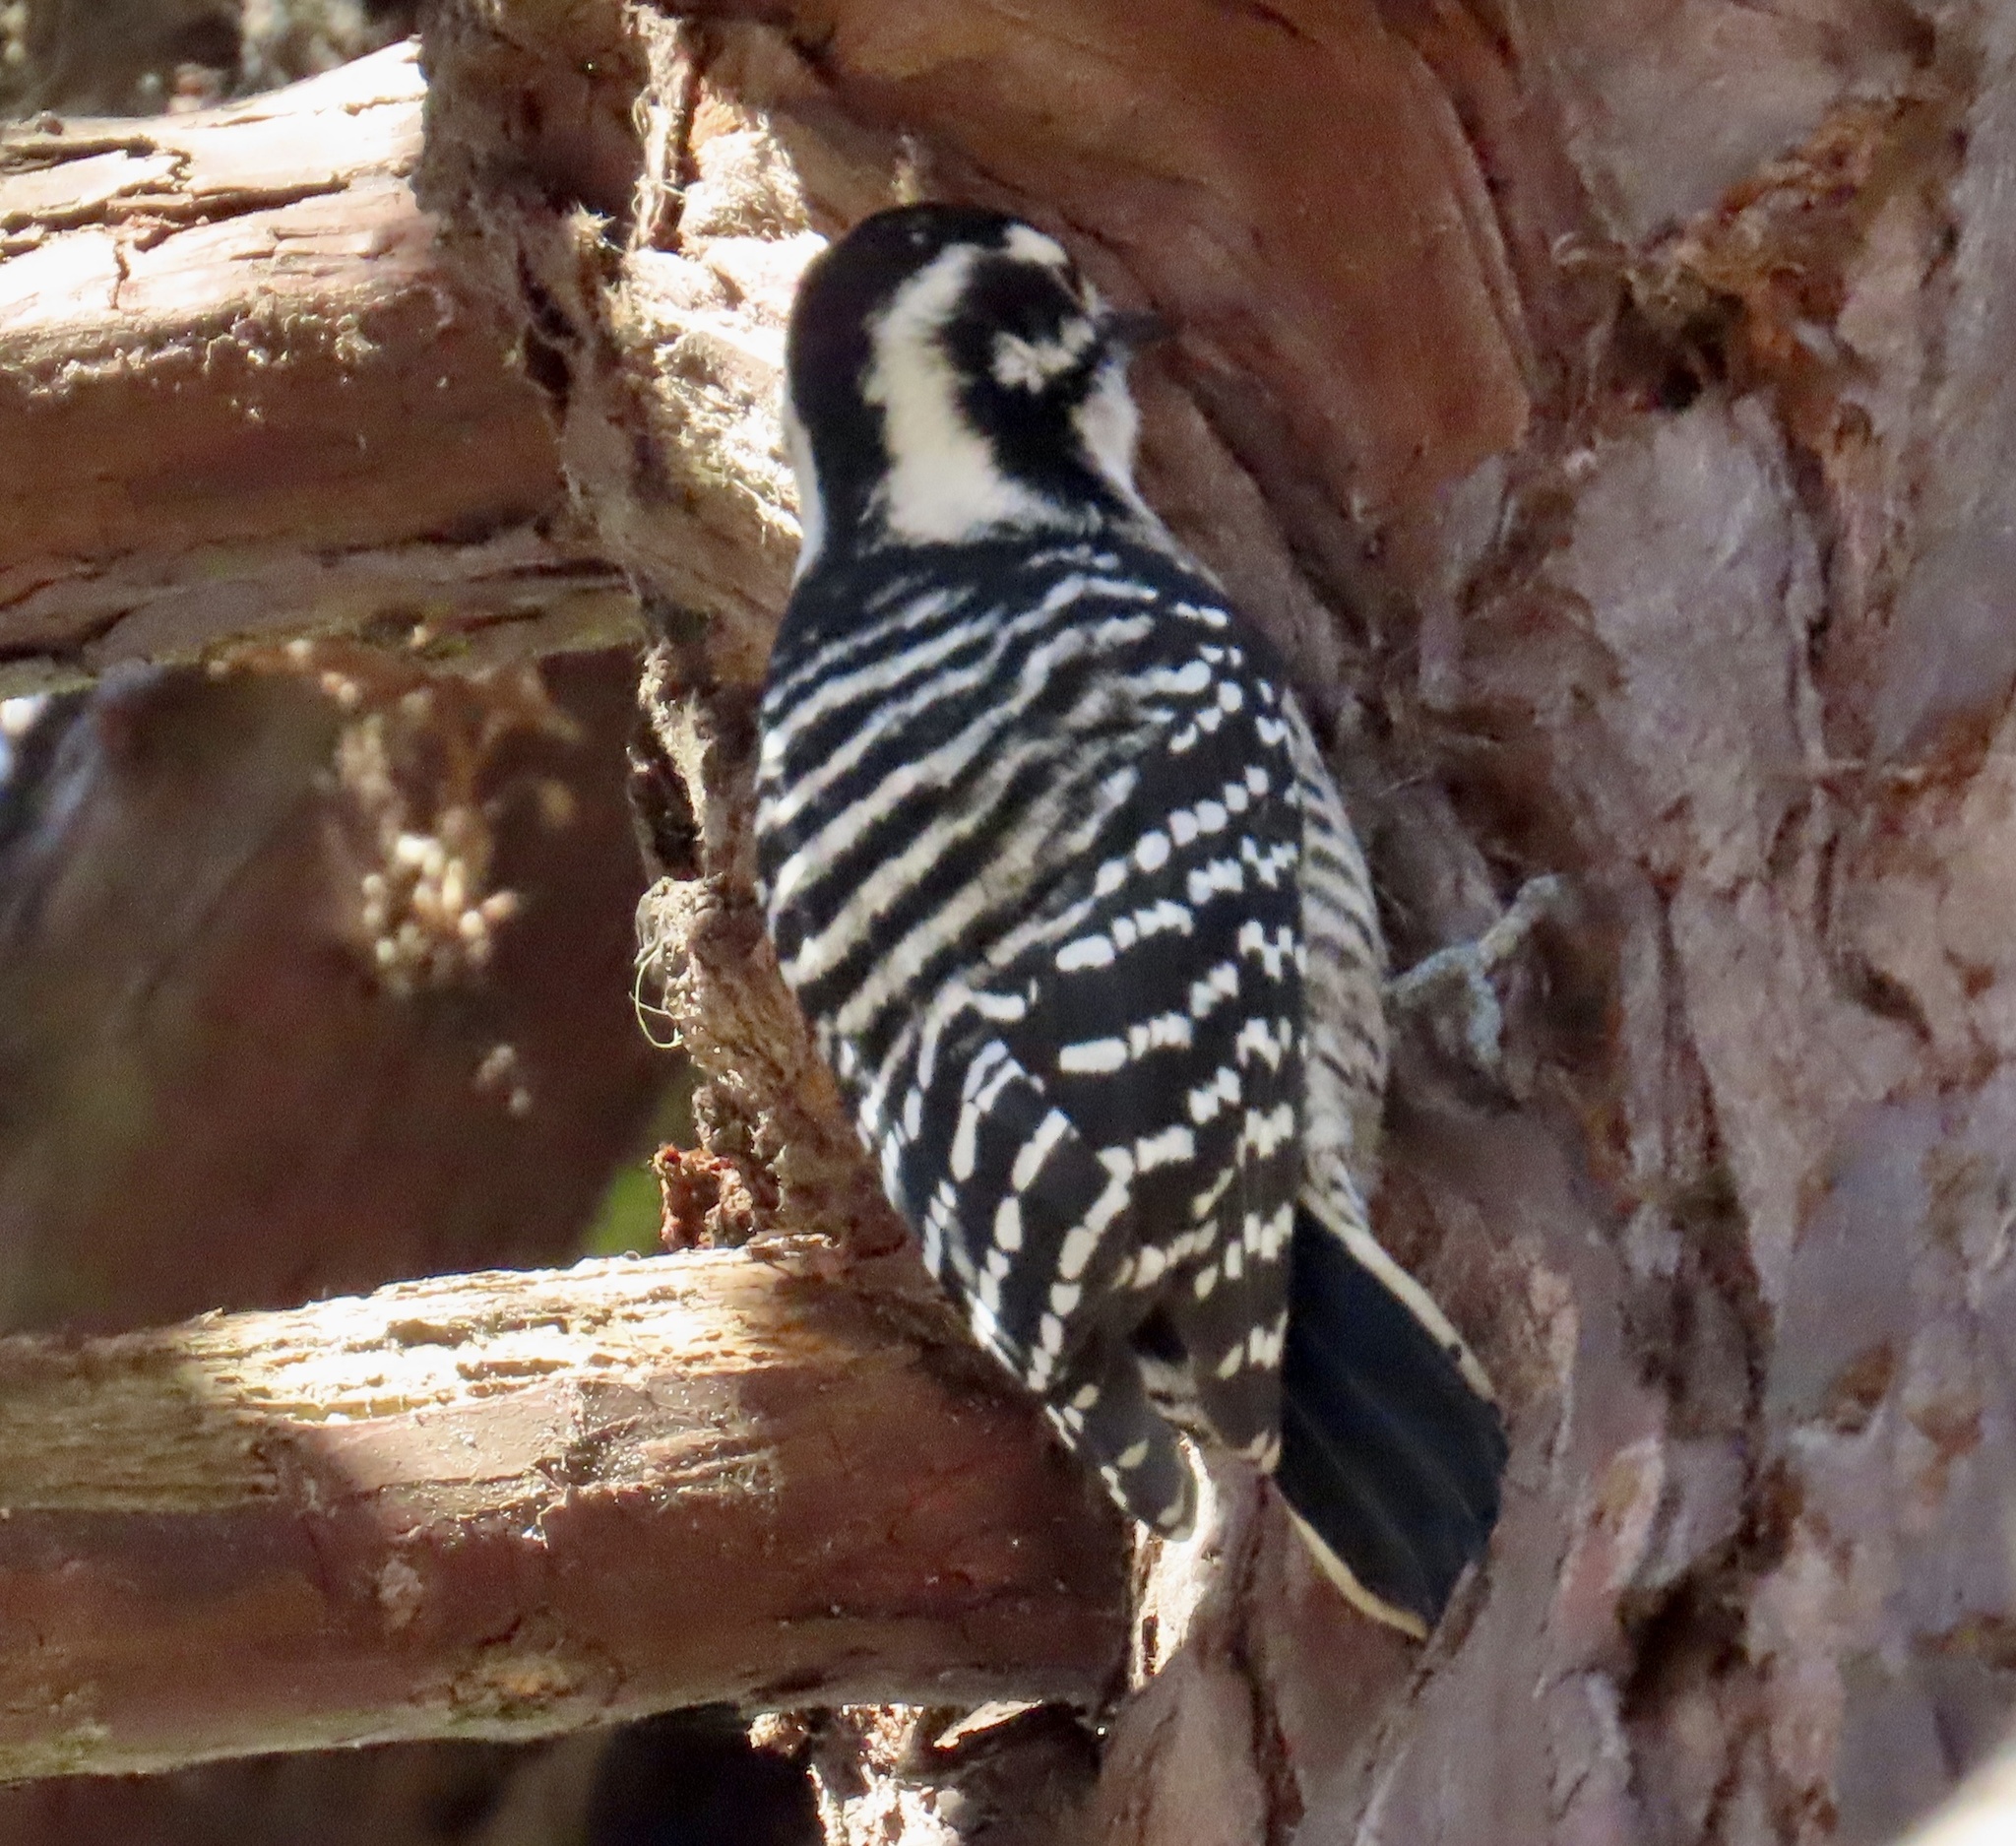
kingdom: Animalia
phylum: Chordata
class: Aves
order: Piciformes
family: Picidae
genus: Dryobates
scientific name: Dryobates nuttallii
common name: Nuttall's woodpecker
